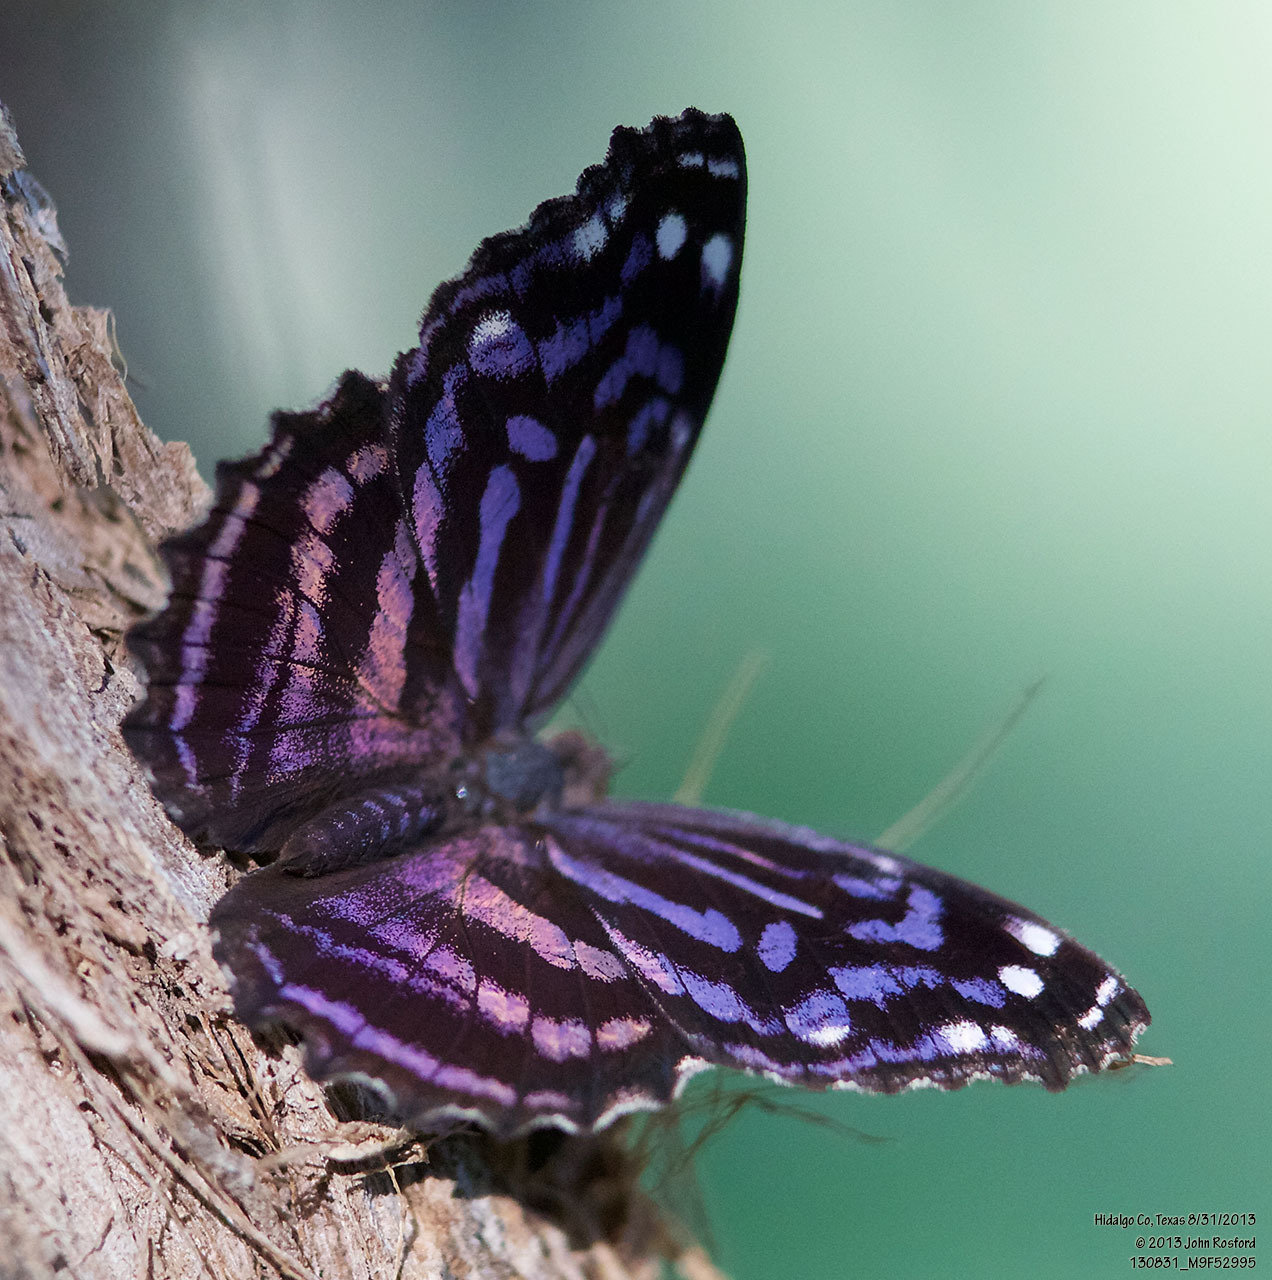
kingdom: Animalia
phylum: Arthropoda
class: Insecta
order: Lepidoptera
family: Nymphalidae
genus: Myscelia
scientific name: Myscelia ethusa
